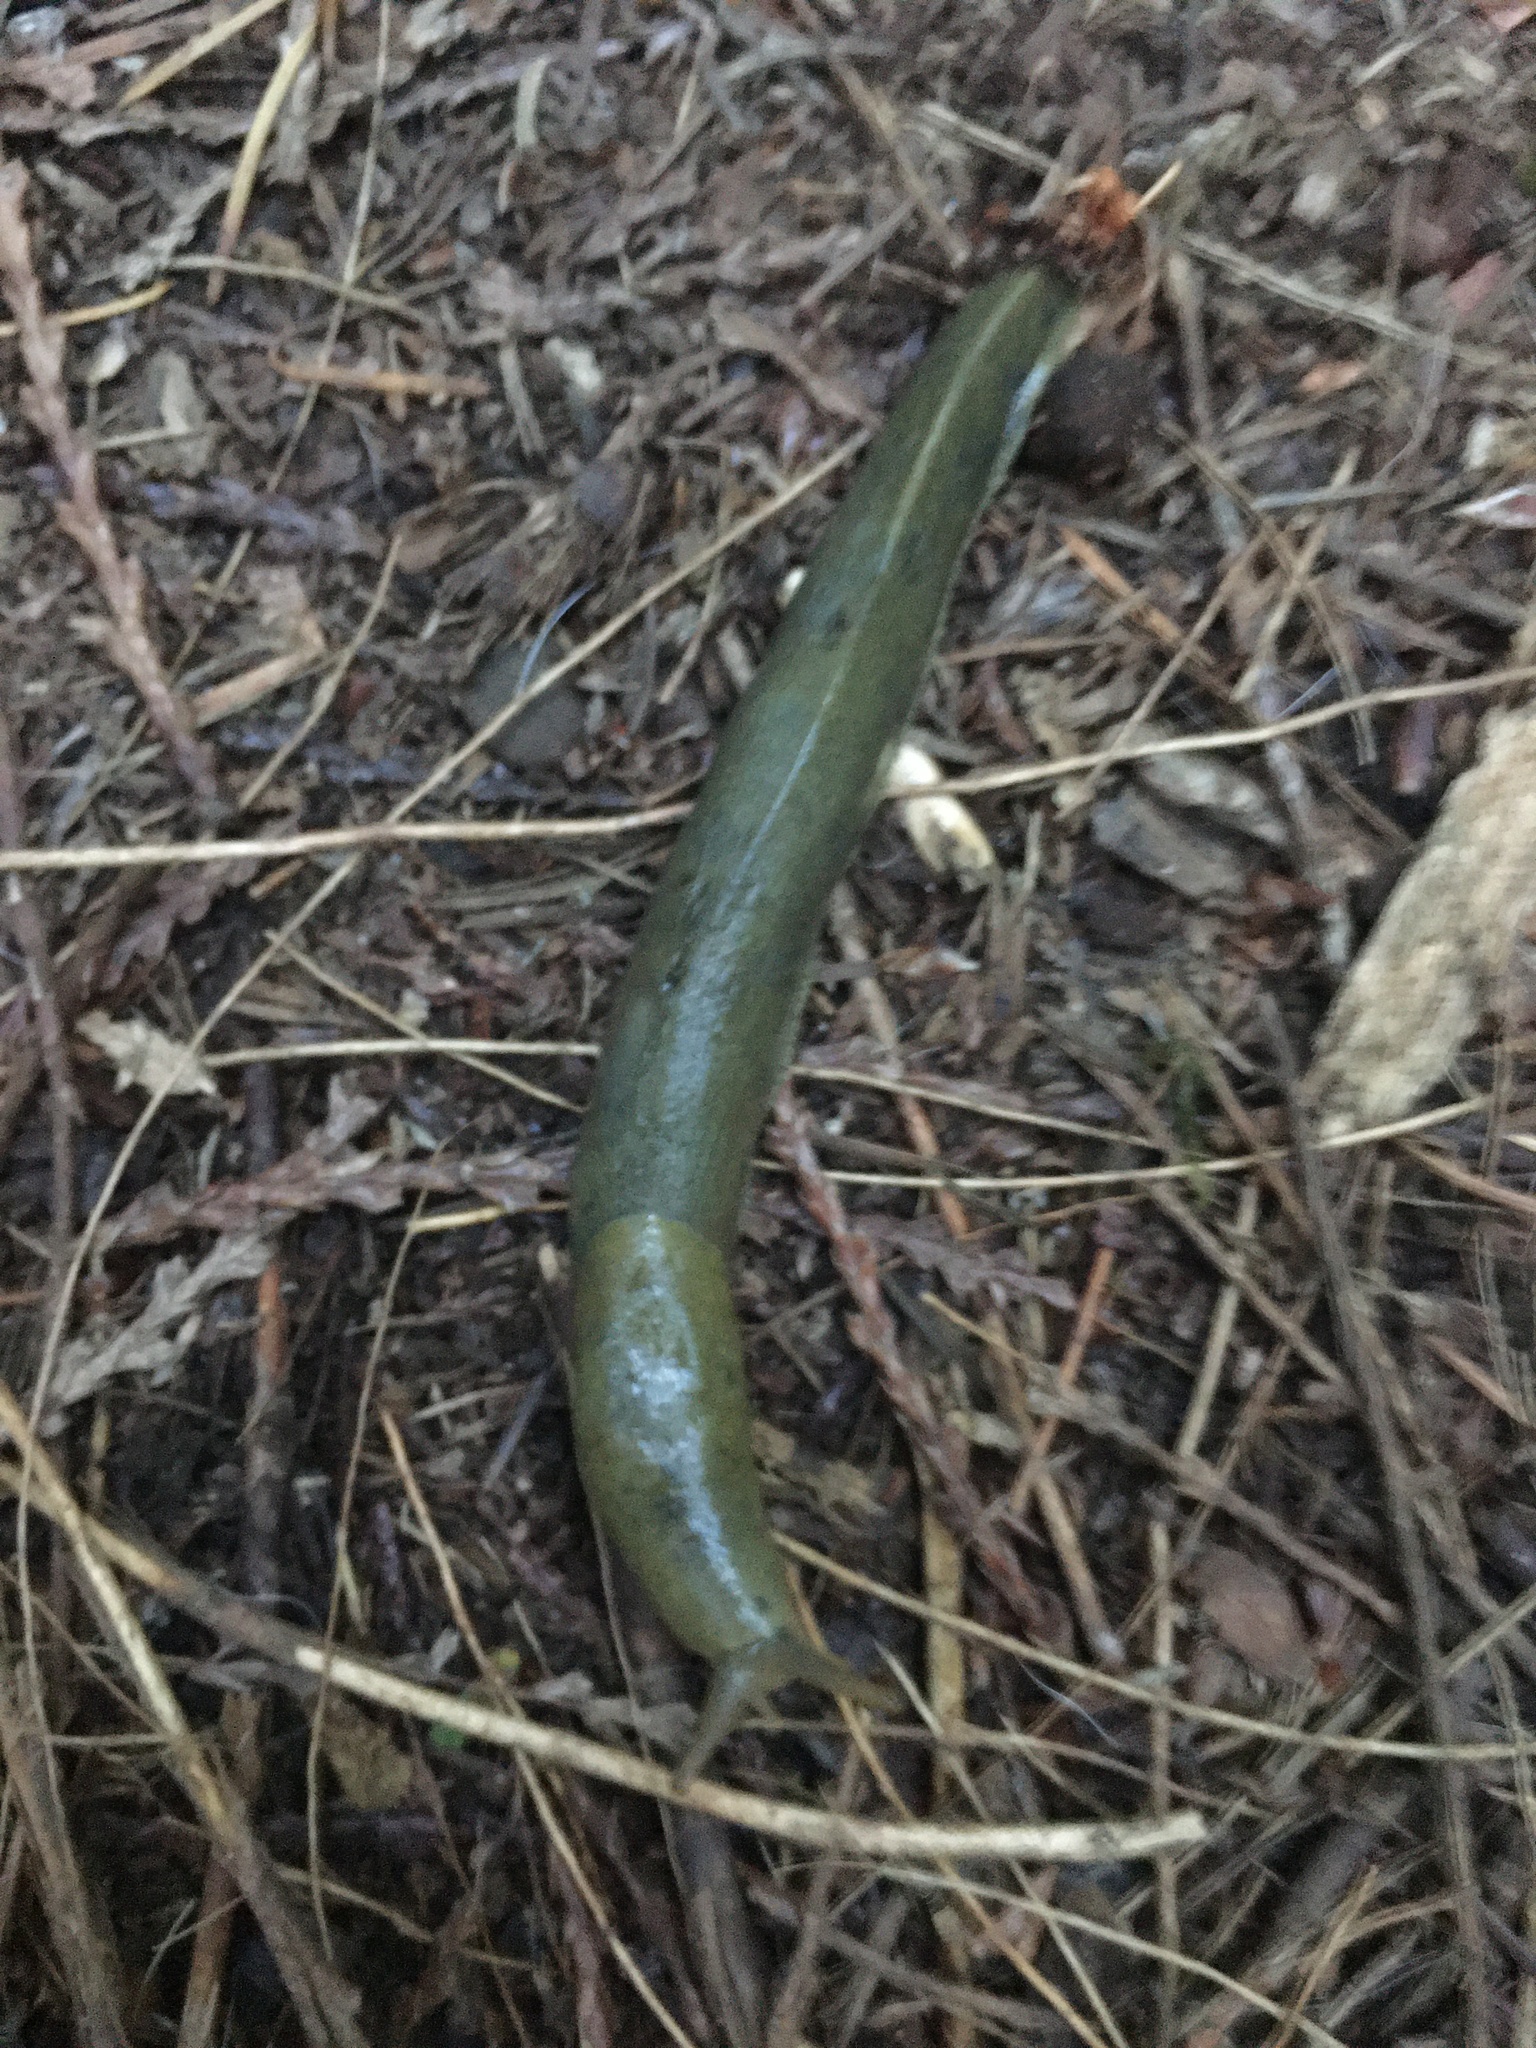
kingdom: Animalia
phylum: Mollusca
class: Gastropoda
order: Stylommatophora
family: Ariolimacidae
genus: Ariolimax
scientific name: Ariolimax columbianus
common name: Pacific banana slug
